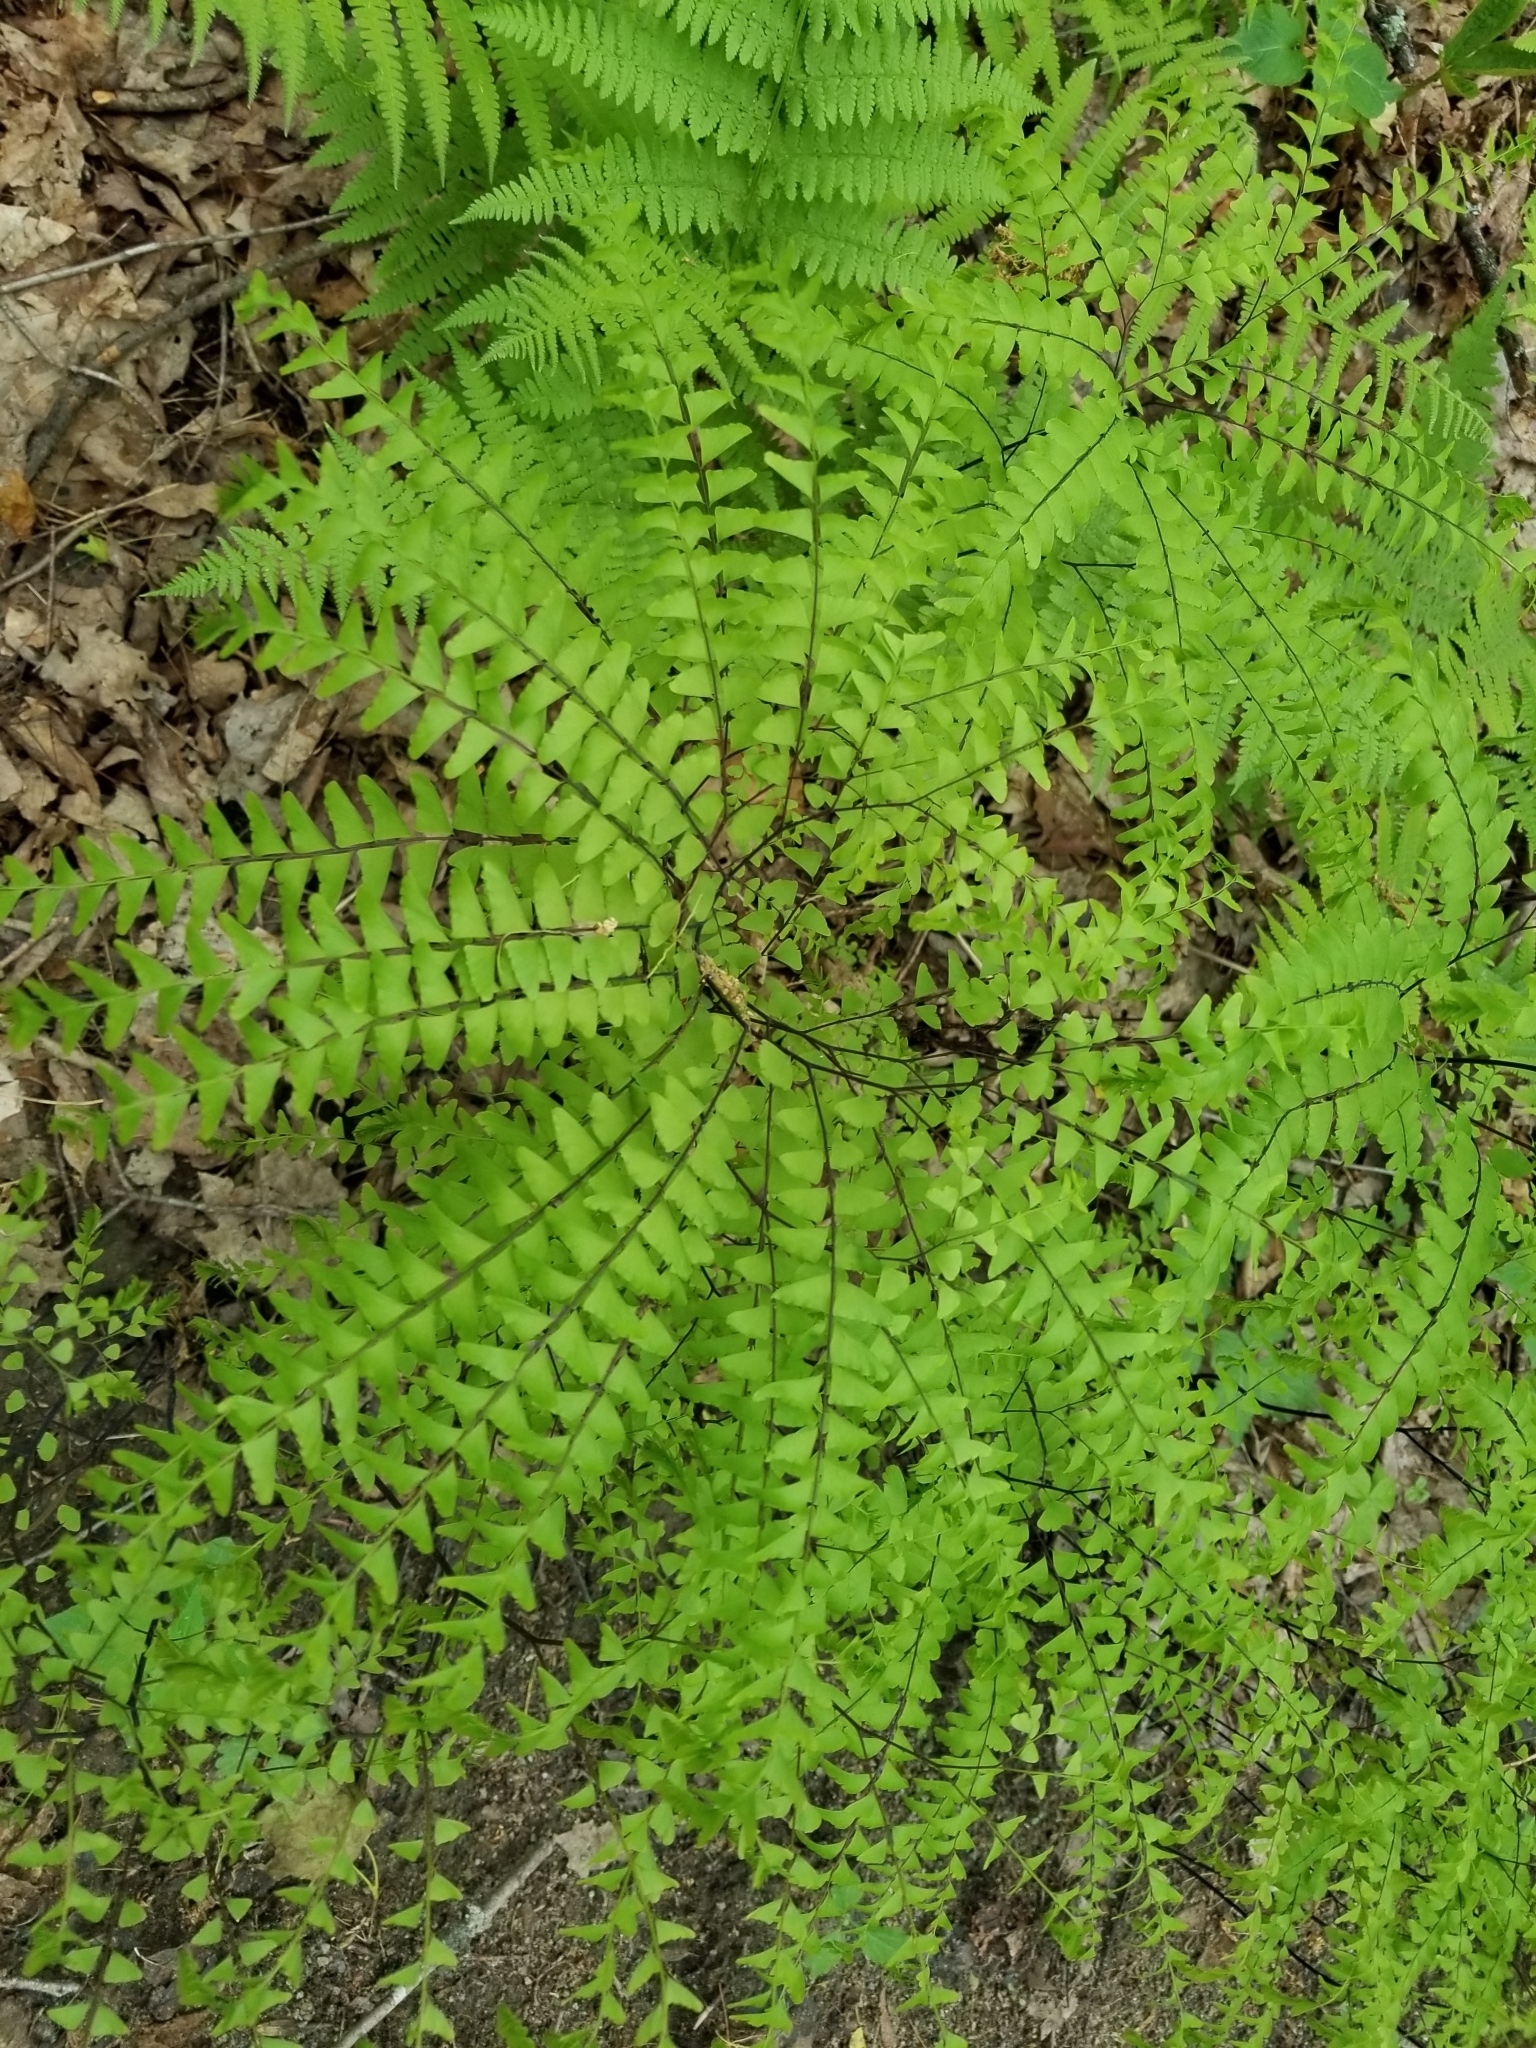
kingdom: Plantae
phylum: Tracheophyta
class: Polypodiopsida
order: Polypodiales
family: Pteridaceae
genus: Adiantum
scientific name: Adiantum pedatum
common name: Five-finger fern
